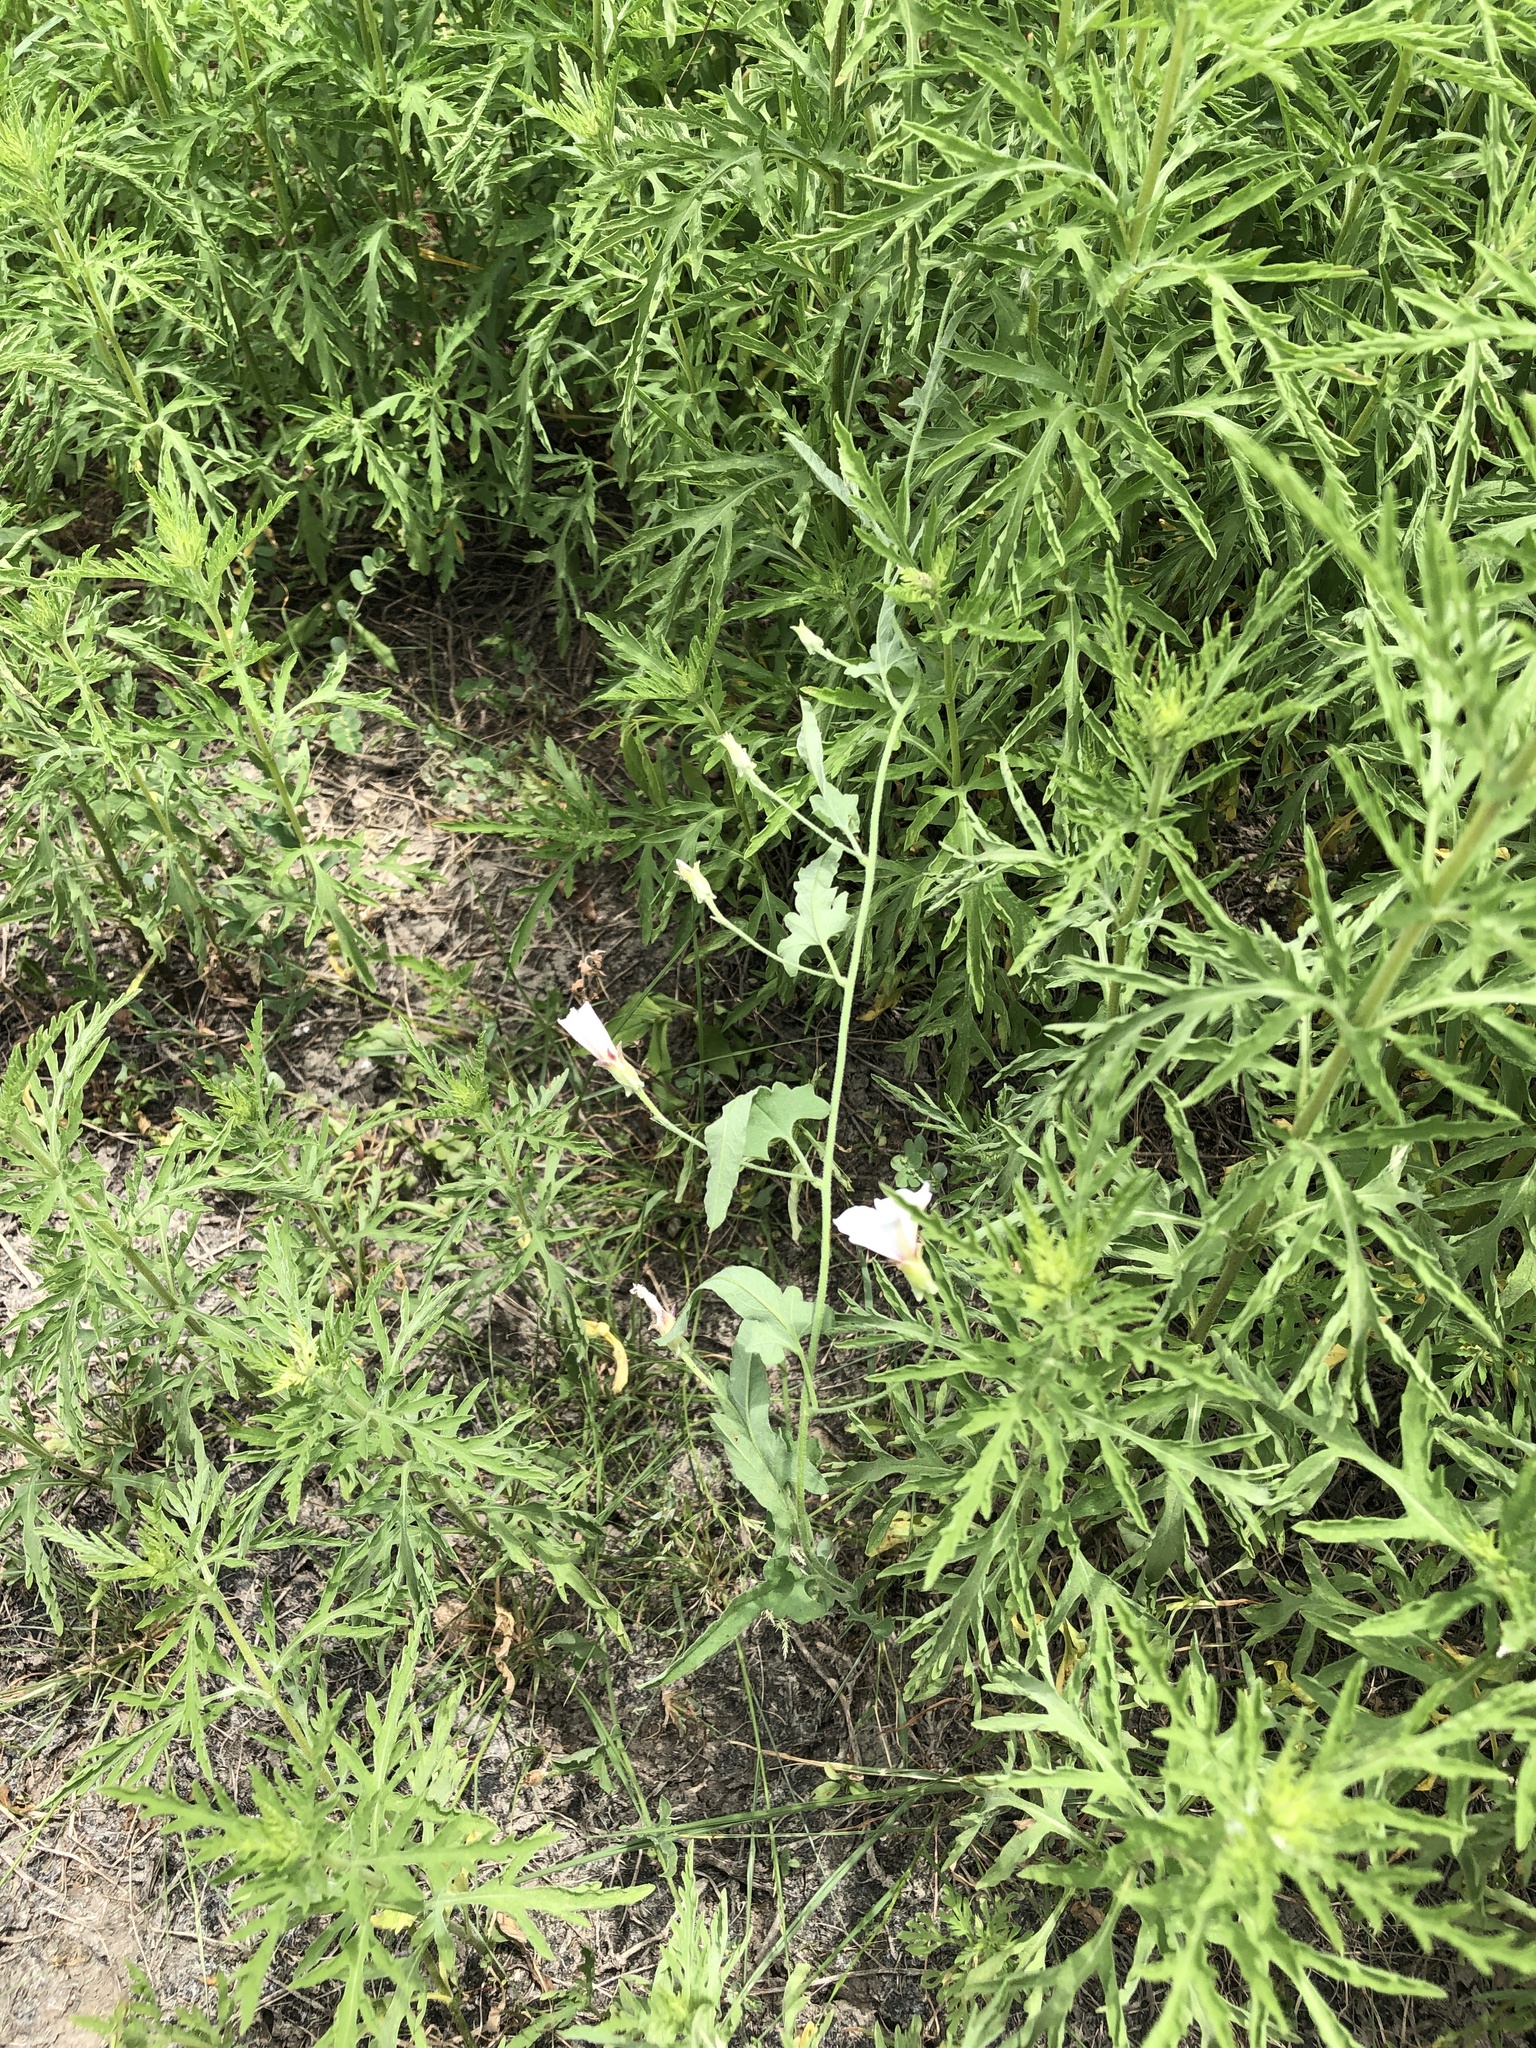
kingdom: Plantae
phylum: Tracheophyta
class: Magnoliopsida
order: Solanales
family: Convolvulaceae
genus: Convolvulus
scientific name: Convolvulus equitans
